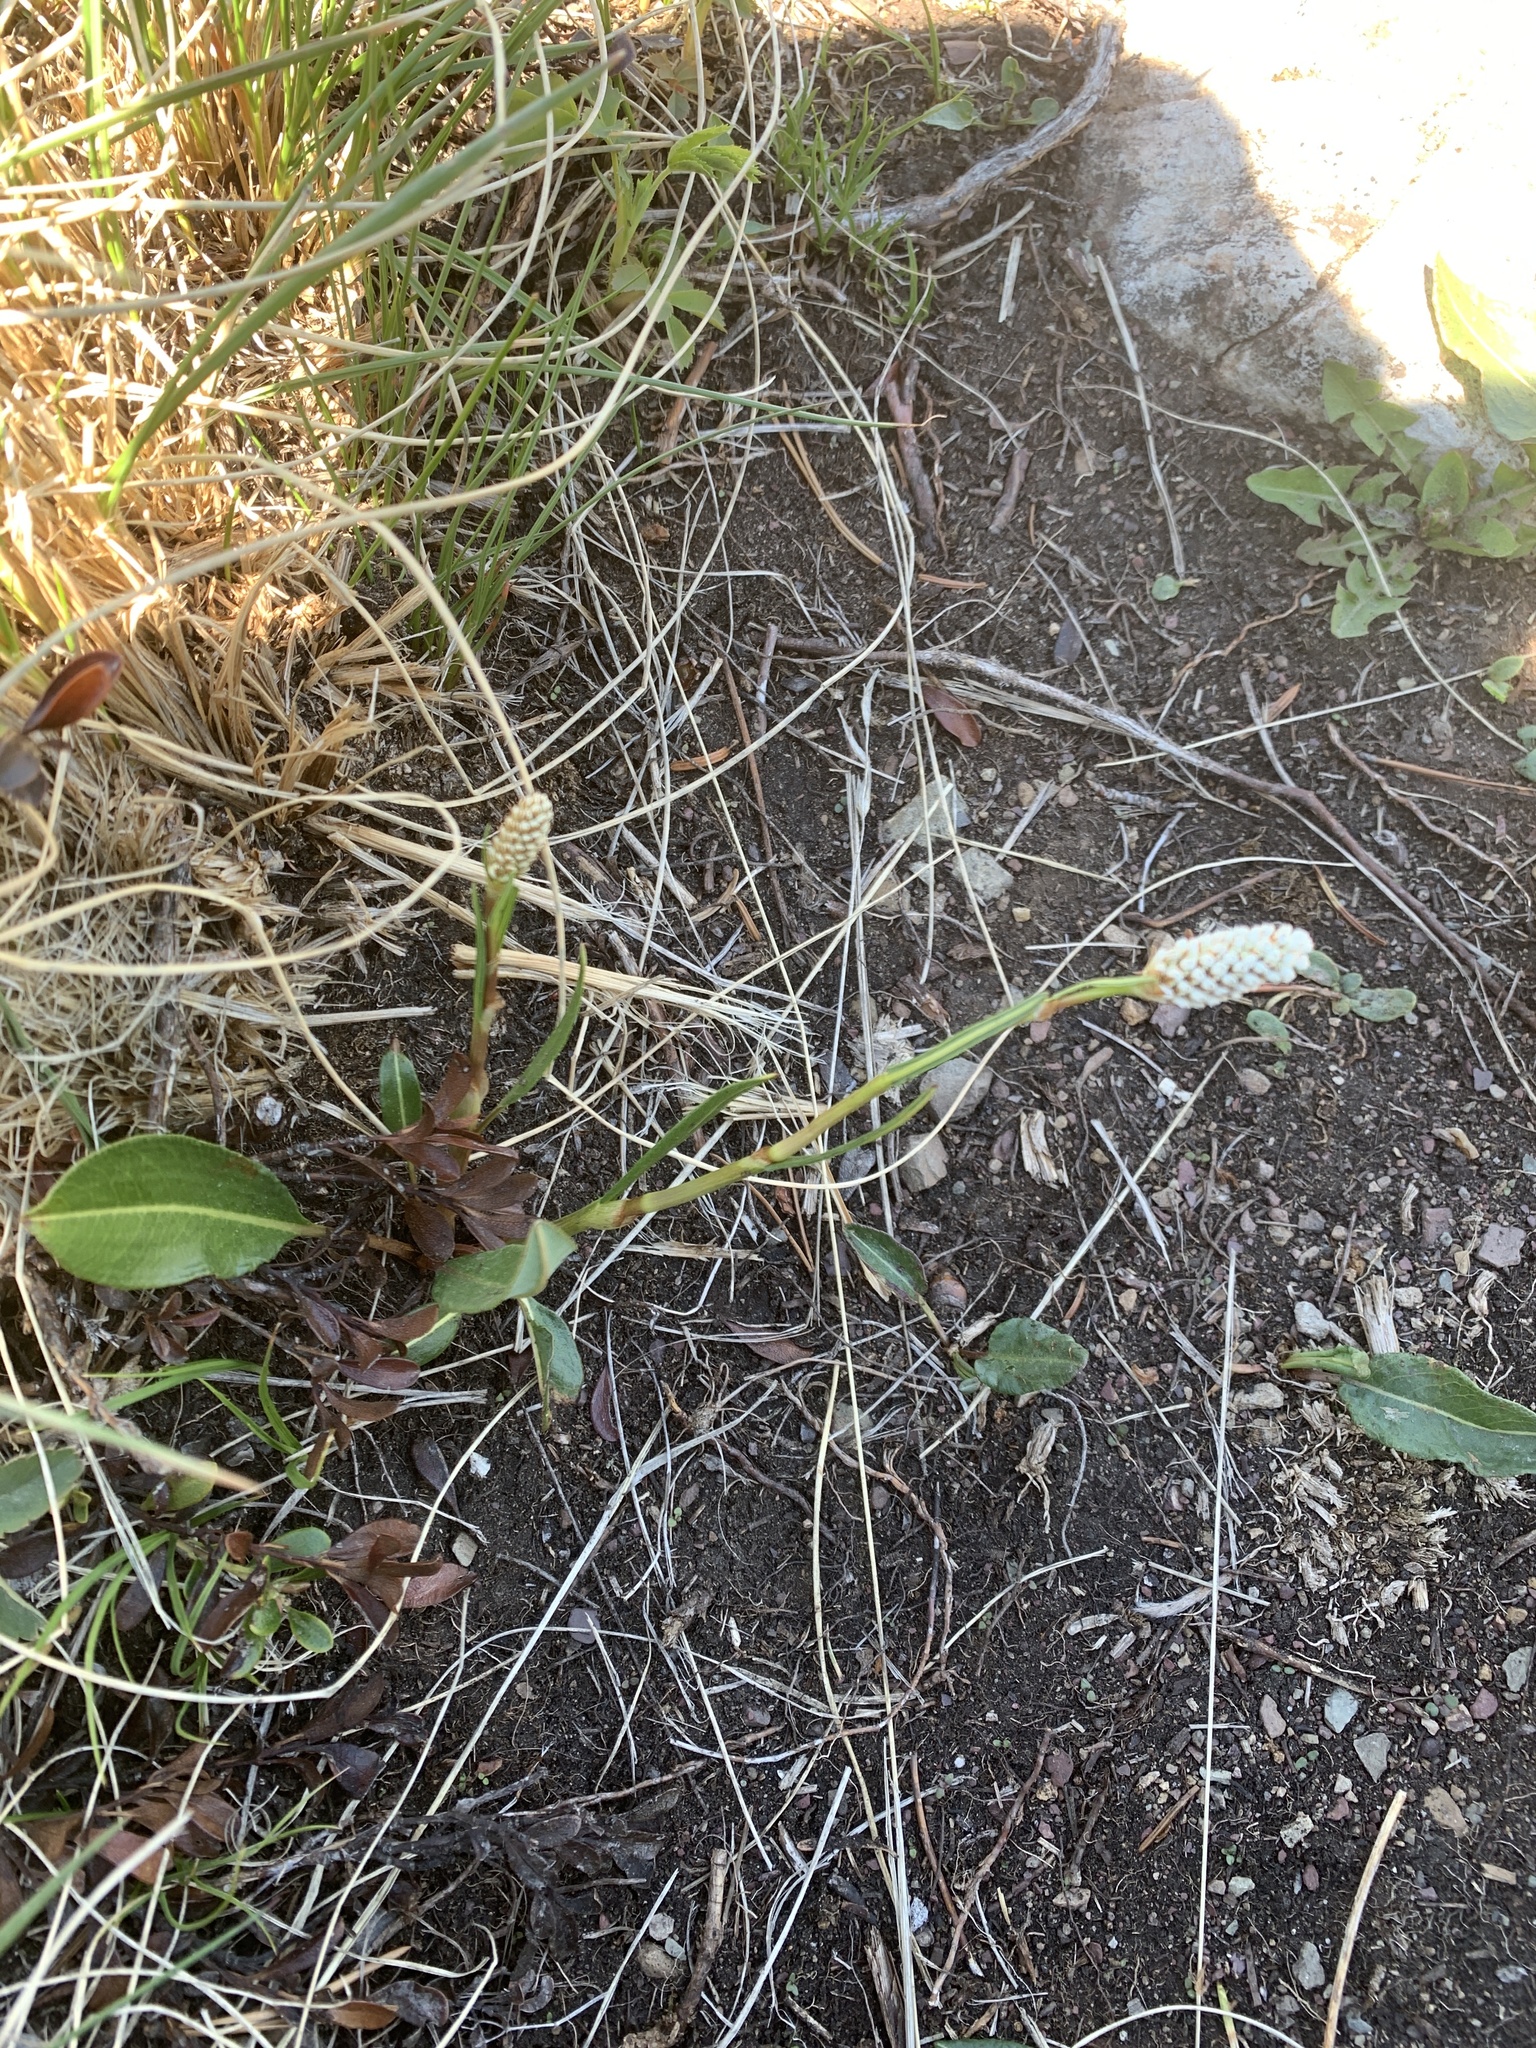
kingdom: Plantae
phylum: Tracheophyta
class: Magnoliopsida
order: Caryophyllales
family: Polygonaceae
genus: Bistorta
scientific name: Bistorta bistortoides
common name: American bistort
